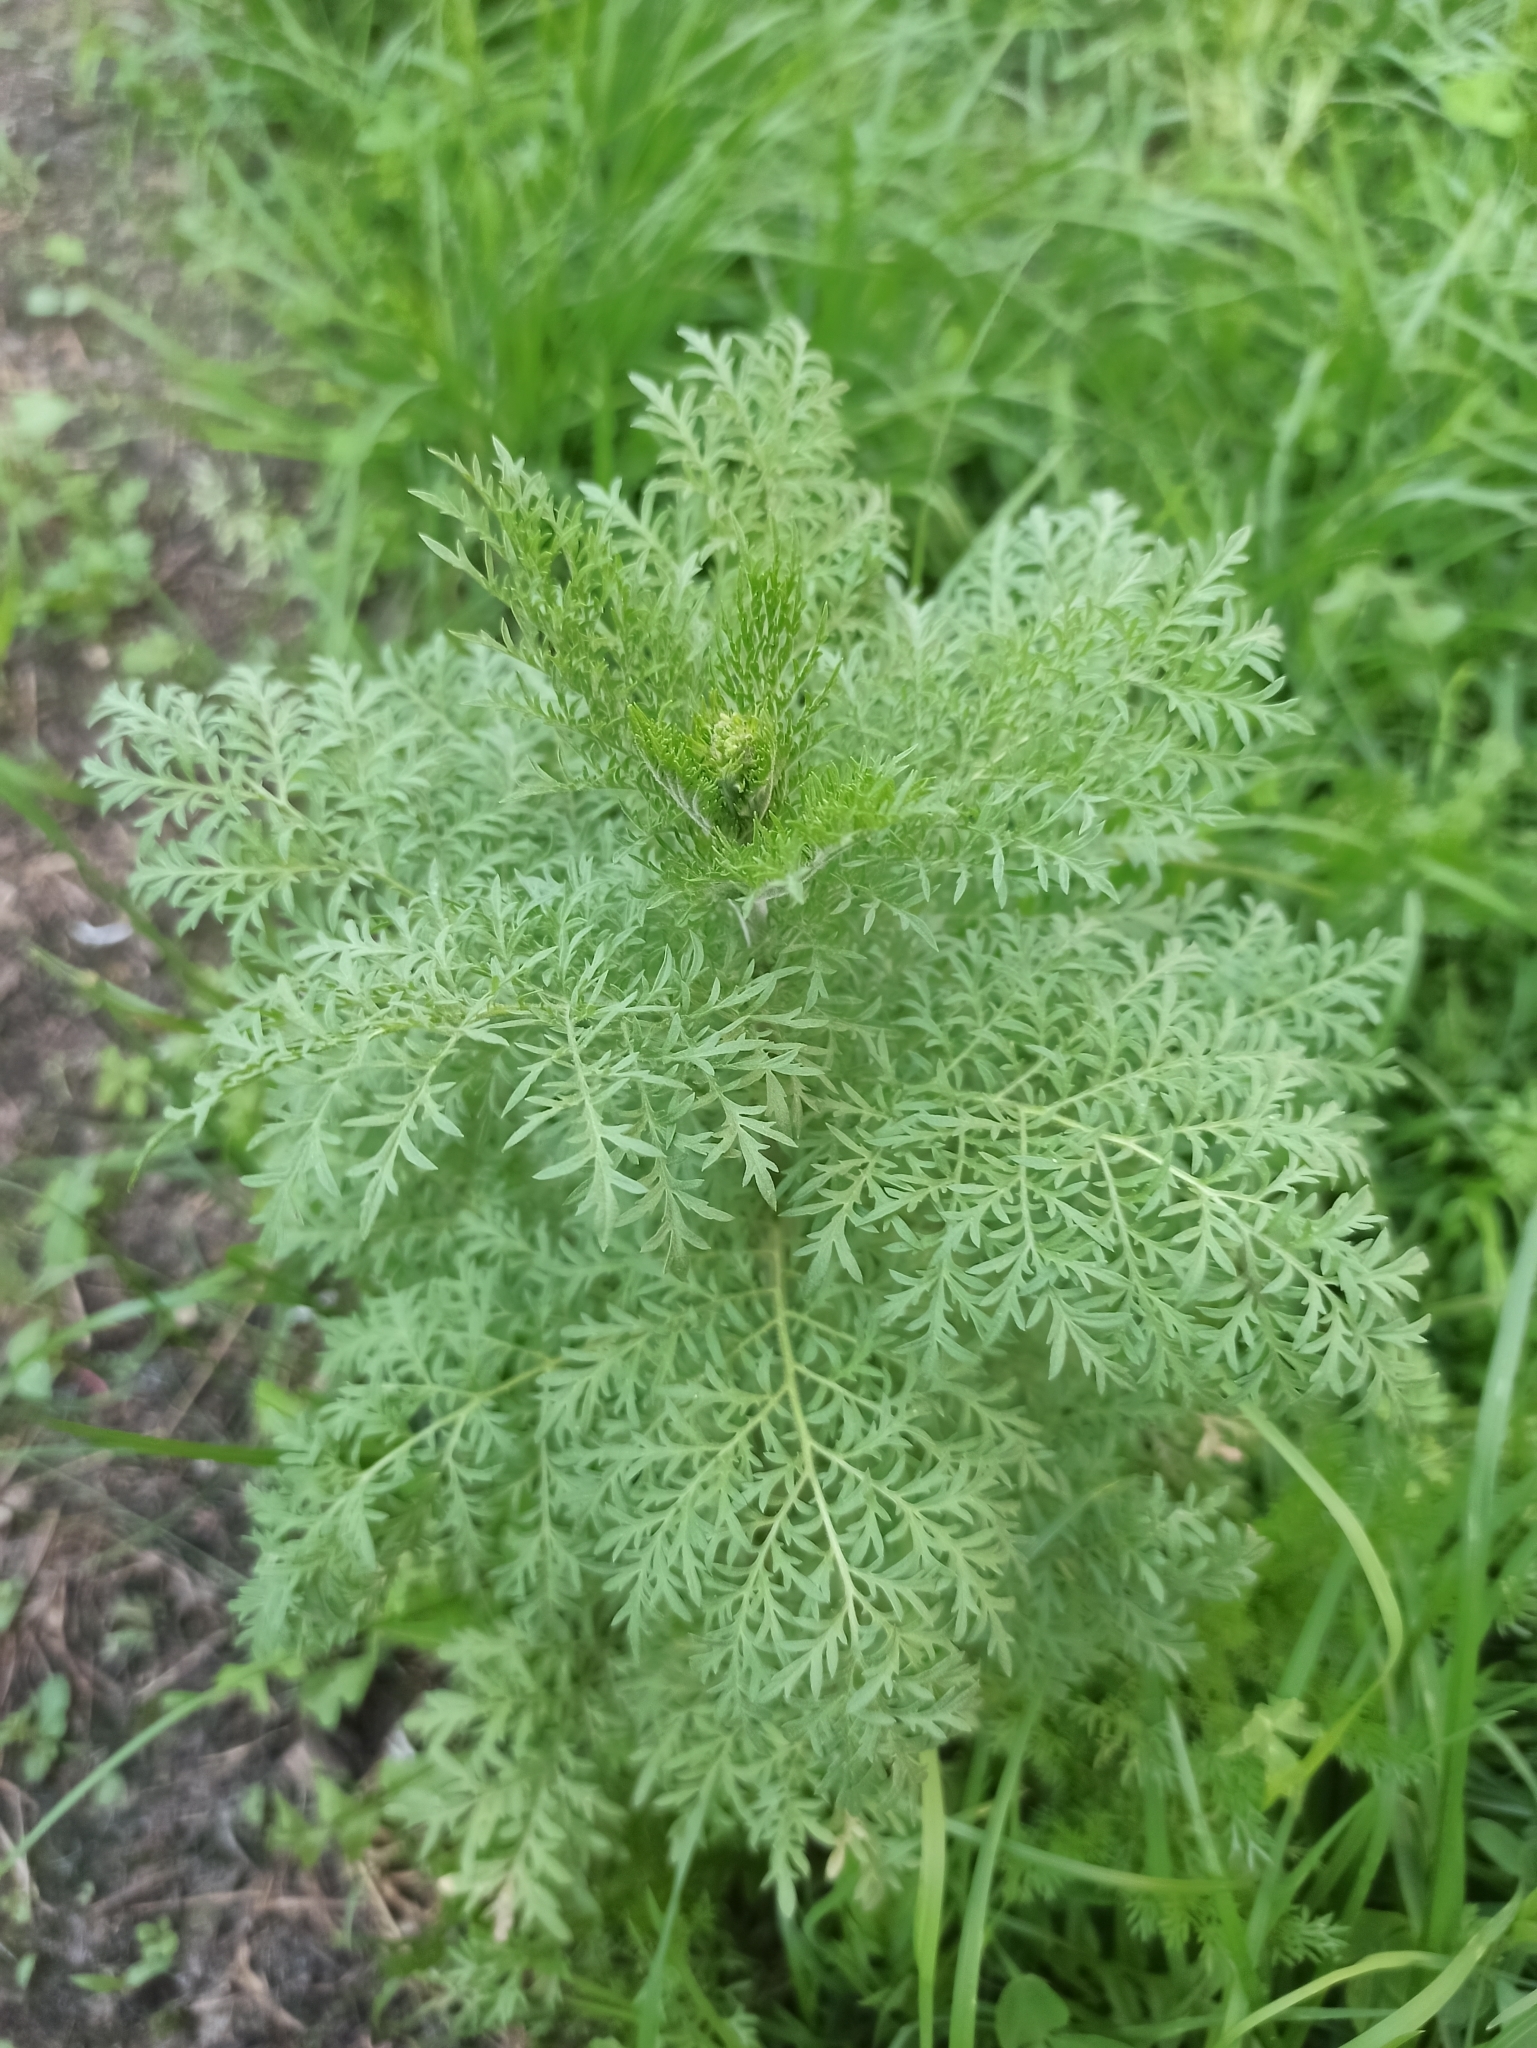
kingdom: Plantae
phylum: Tracheophyta
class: Magnoliopsida
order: Brassicales
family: Brassicaceae
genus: Descurainia
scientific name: Descurainia sophia
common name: Flixweed
